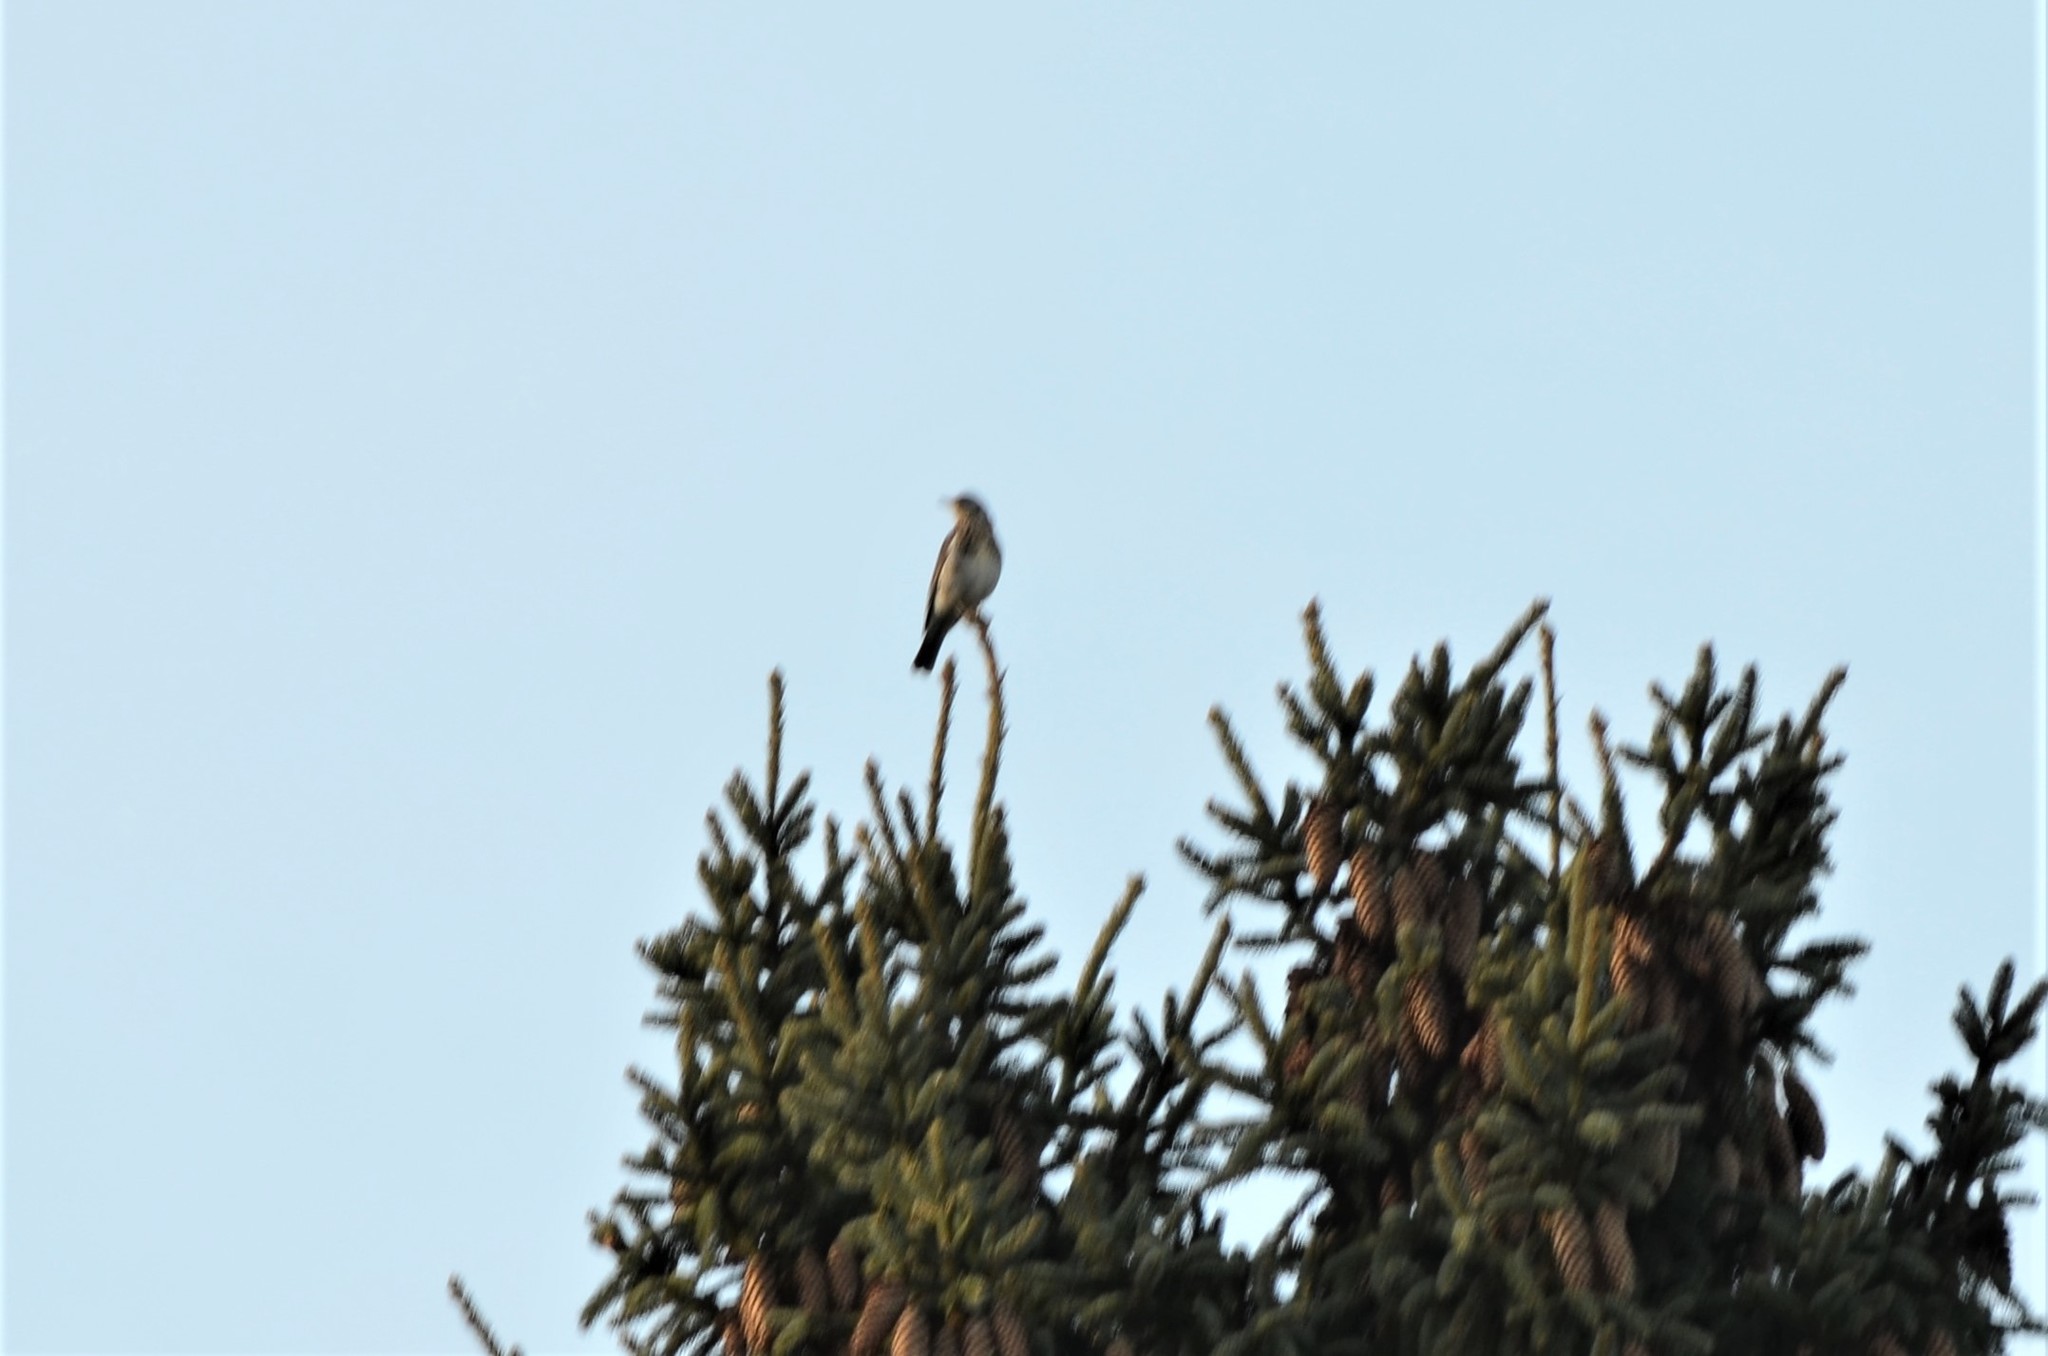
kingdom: Animalia
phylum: Chordata
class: Aves
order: Passeriformes
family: Turdidae
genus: Turdus
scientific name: Turdus pilaris
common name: Fieldfare
